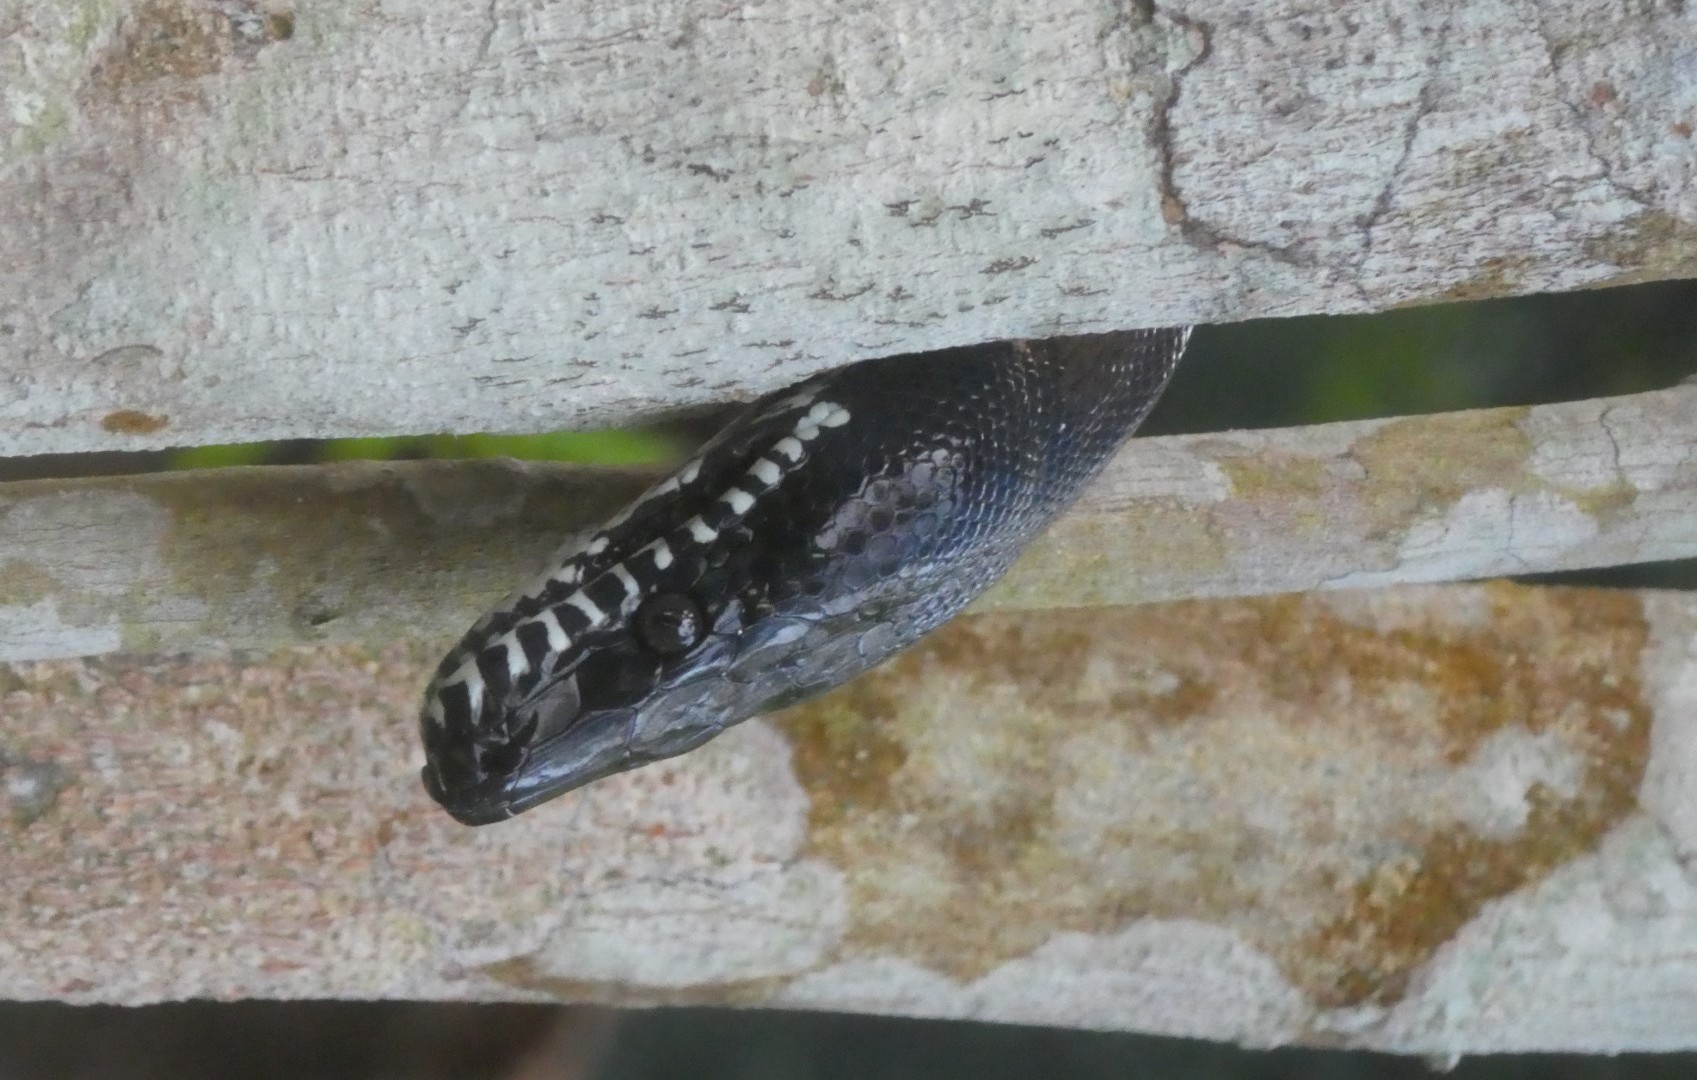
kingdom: Animalia
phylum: Chordata
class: Squamata
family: Pythonidae
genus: Leiopython
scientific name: Leiopython albertisii
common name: Northern white-lipped python
